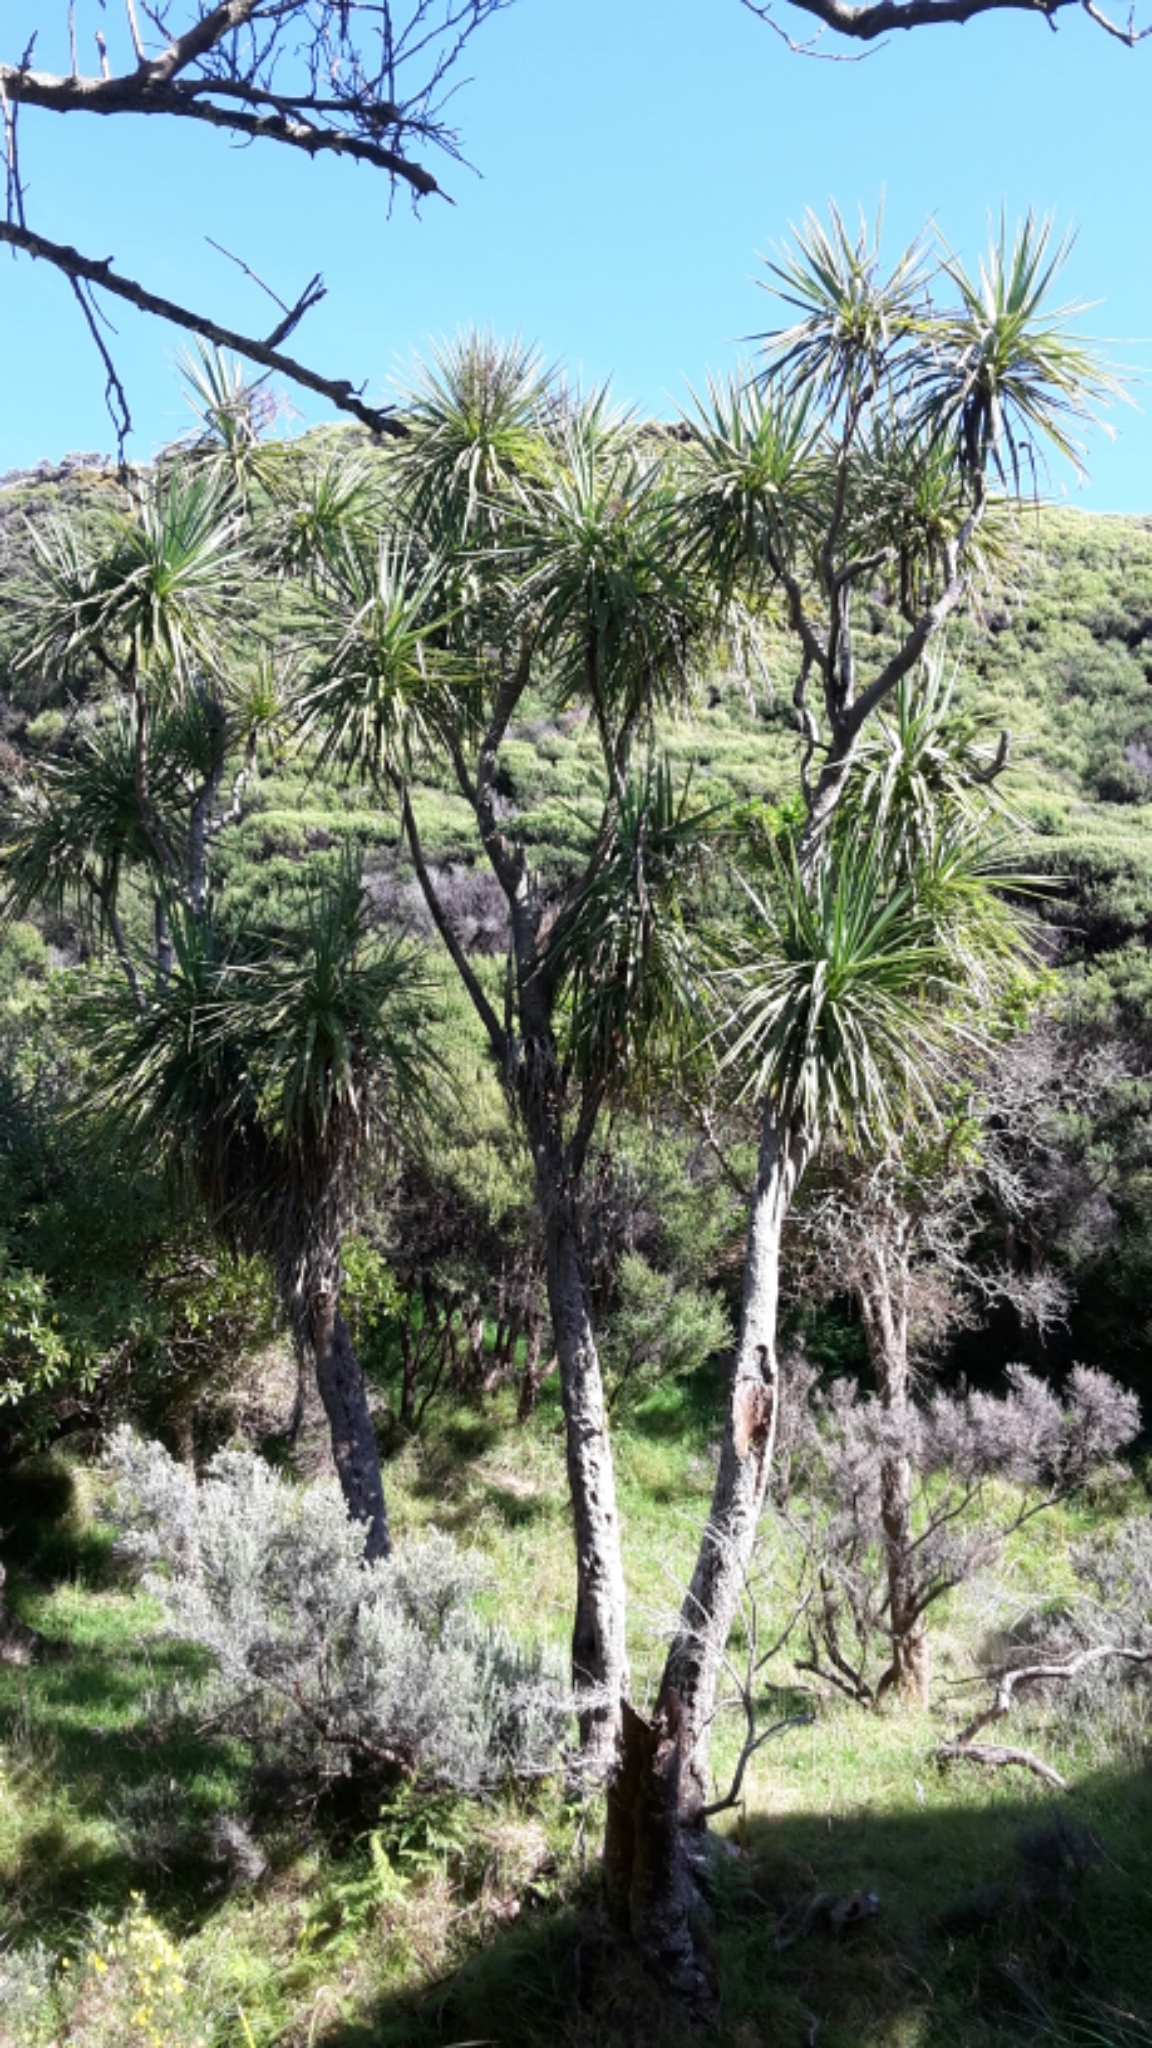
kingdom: Plantae
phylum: Tracheophyta
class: Liliopsida
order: Asparagales
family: Asparagaceae
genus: Cordyline
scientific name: Cordyline australis
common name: Cabbage-palm
